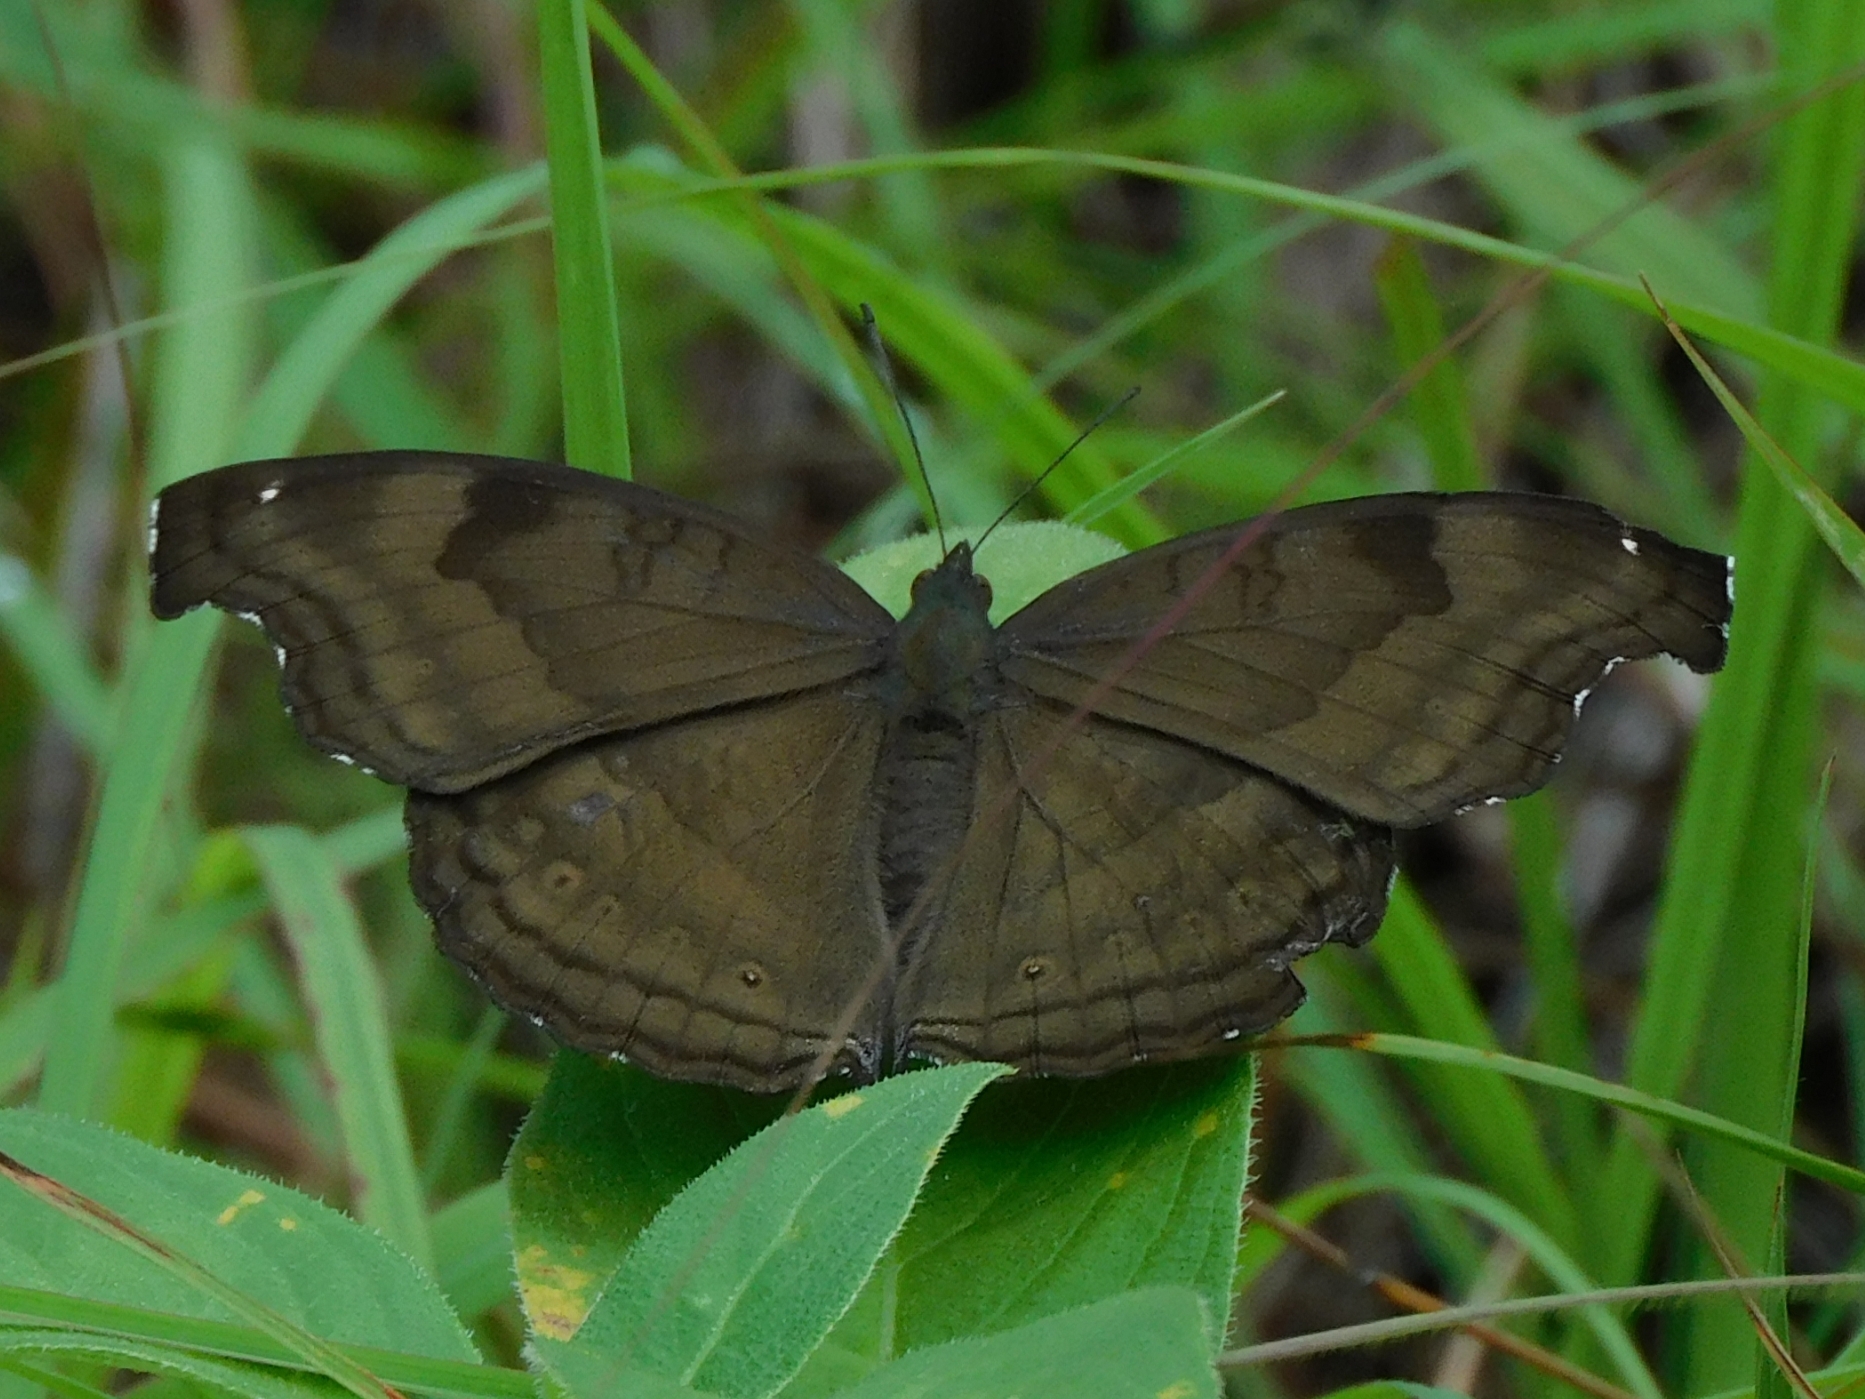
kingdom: Animalia
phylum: Arthropoda
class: Insecta
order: Lepidoptera
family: Nymphalidae
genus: Junonia
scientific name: Junonia iphita
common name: Chocolate pansy
